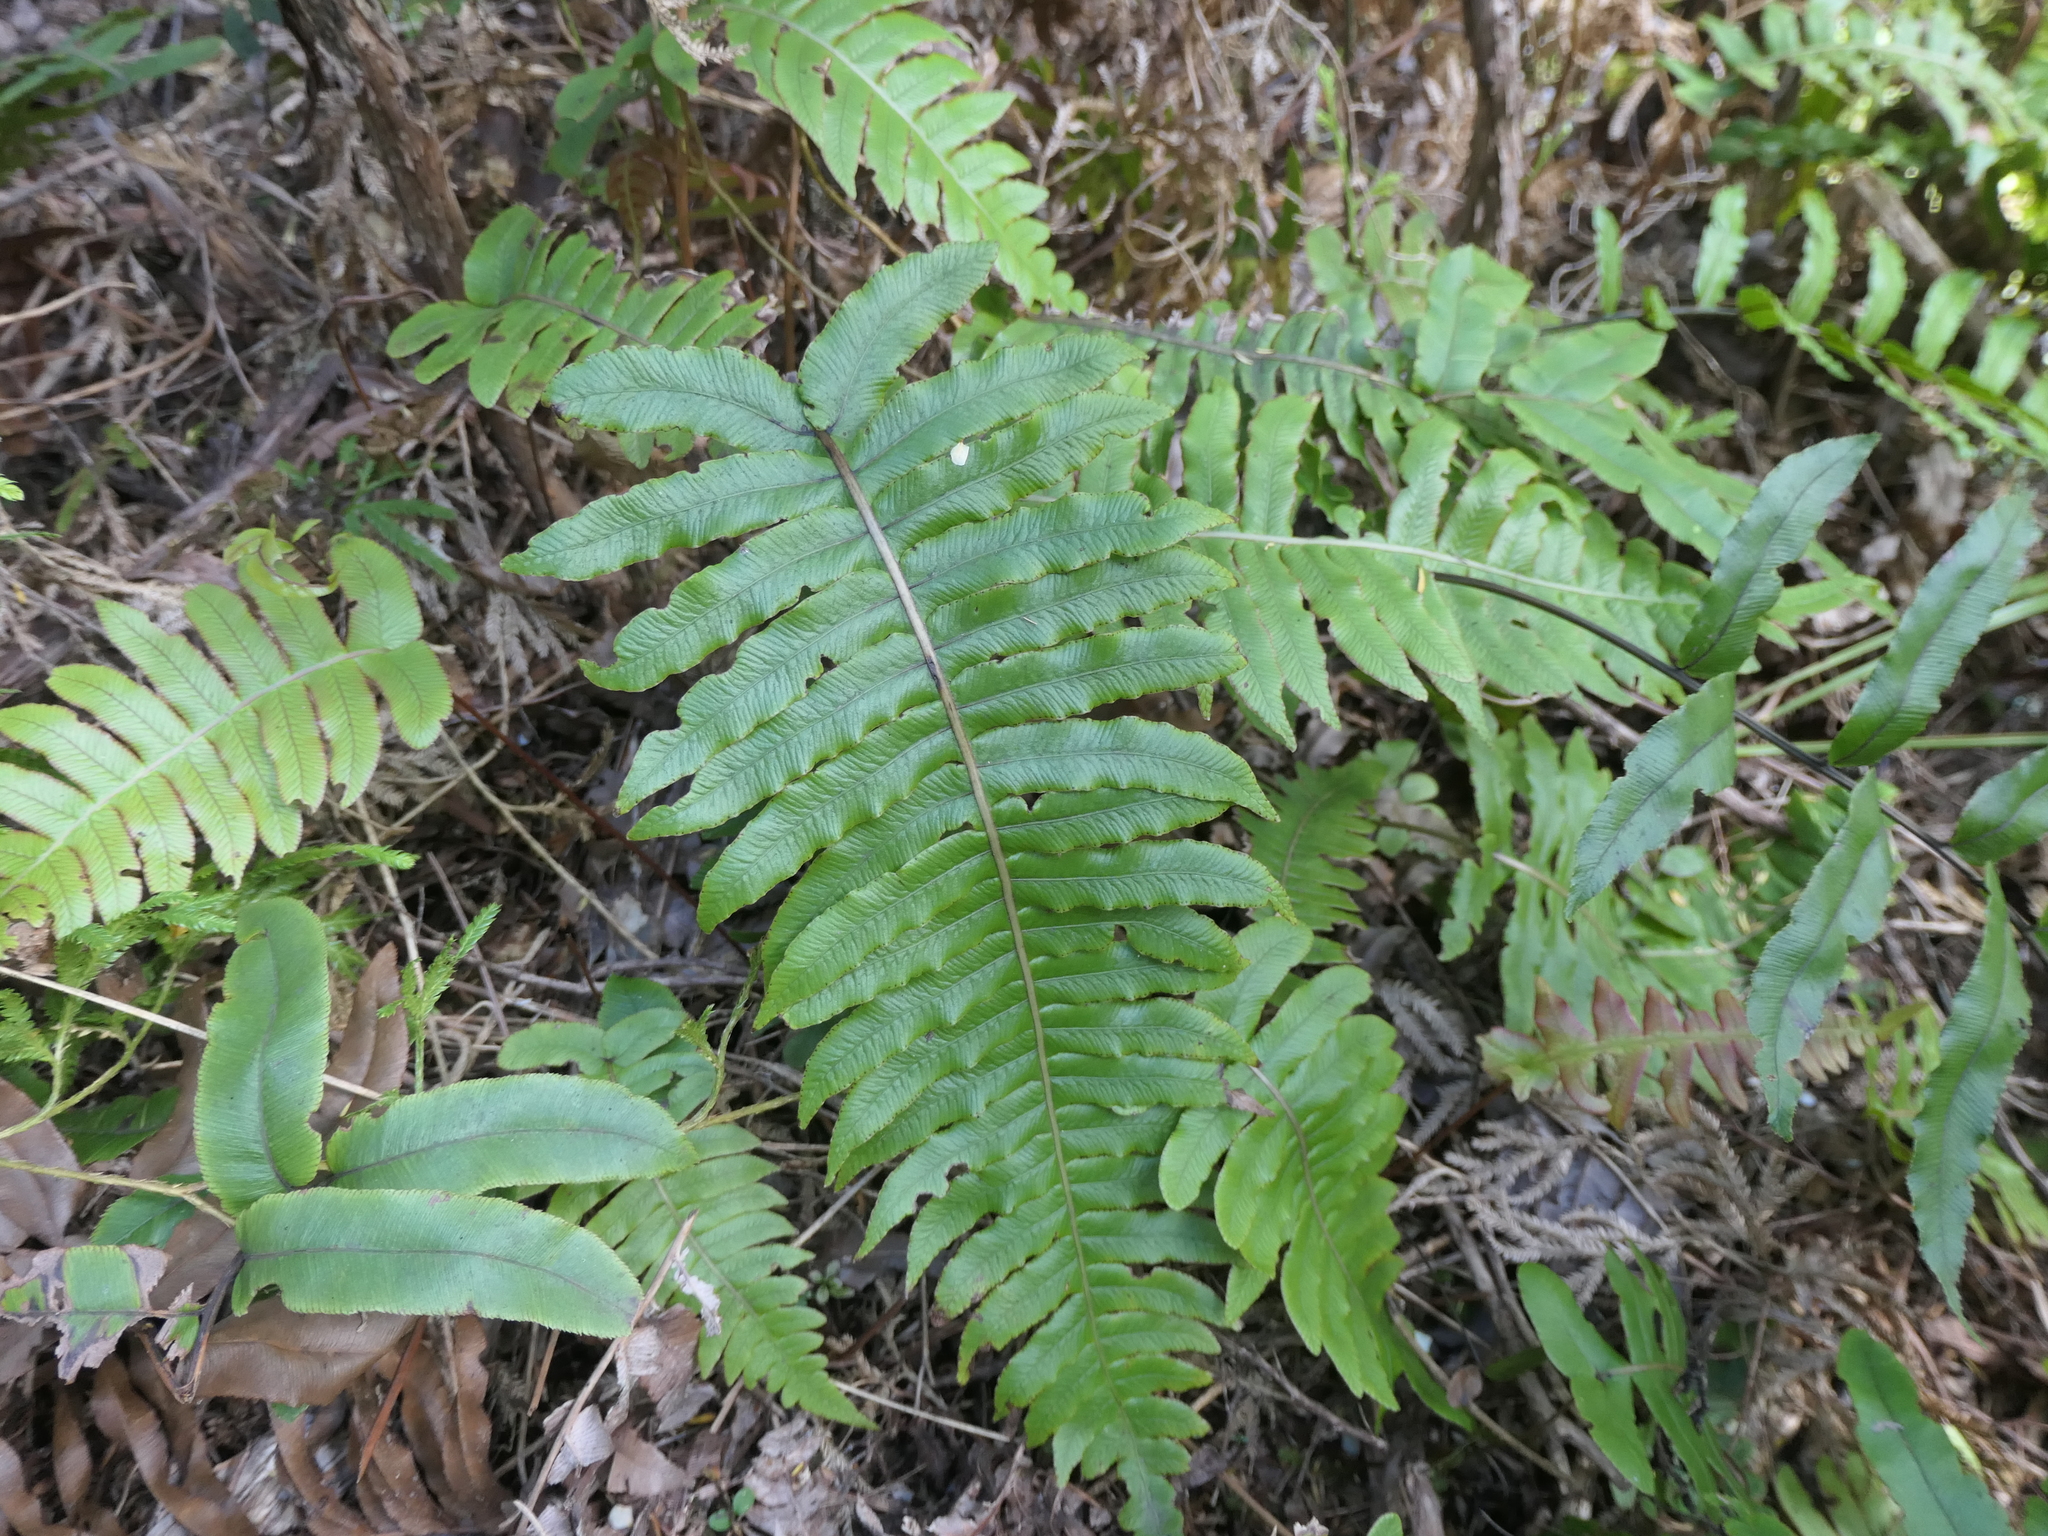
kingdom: Plantae
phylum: Tracheophyta
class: Polypodiopsida
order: Polypodiales
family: Blechnaceae
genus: Cranfillia
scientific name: Cranfillia deltoides
